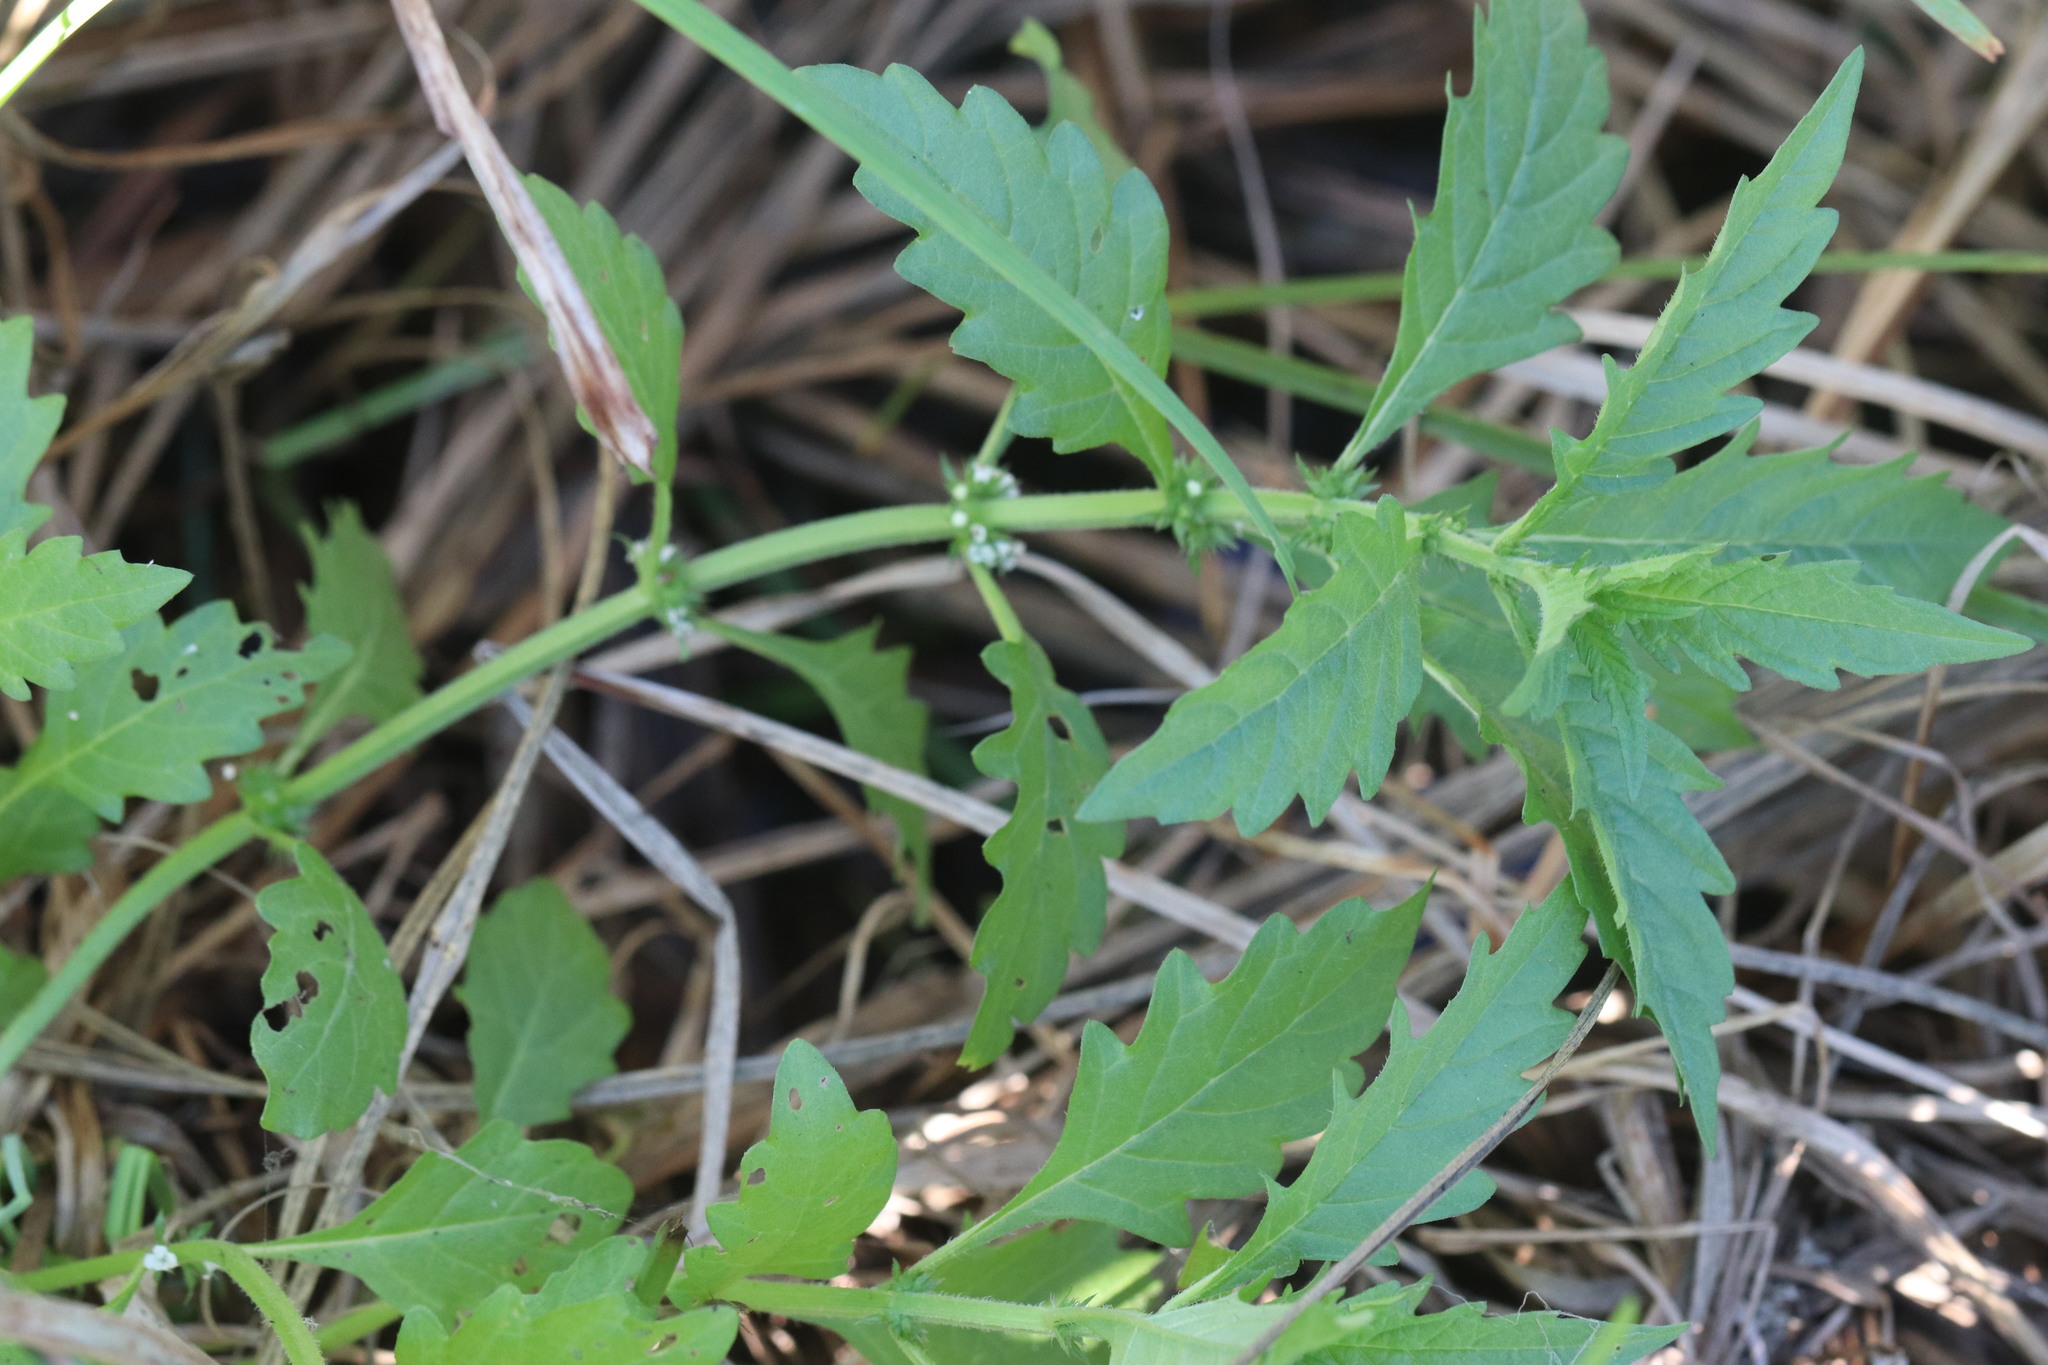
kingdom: Plantae
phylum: Tracheophyta
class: Magnoliopsida
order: Lamiales
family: Lamiaceae
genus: Lycopus
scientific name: Lycopus europaeus
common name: European bugleweed
